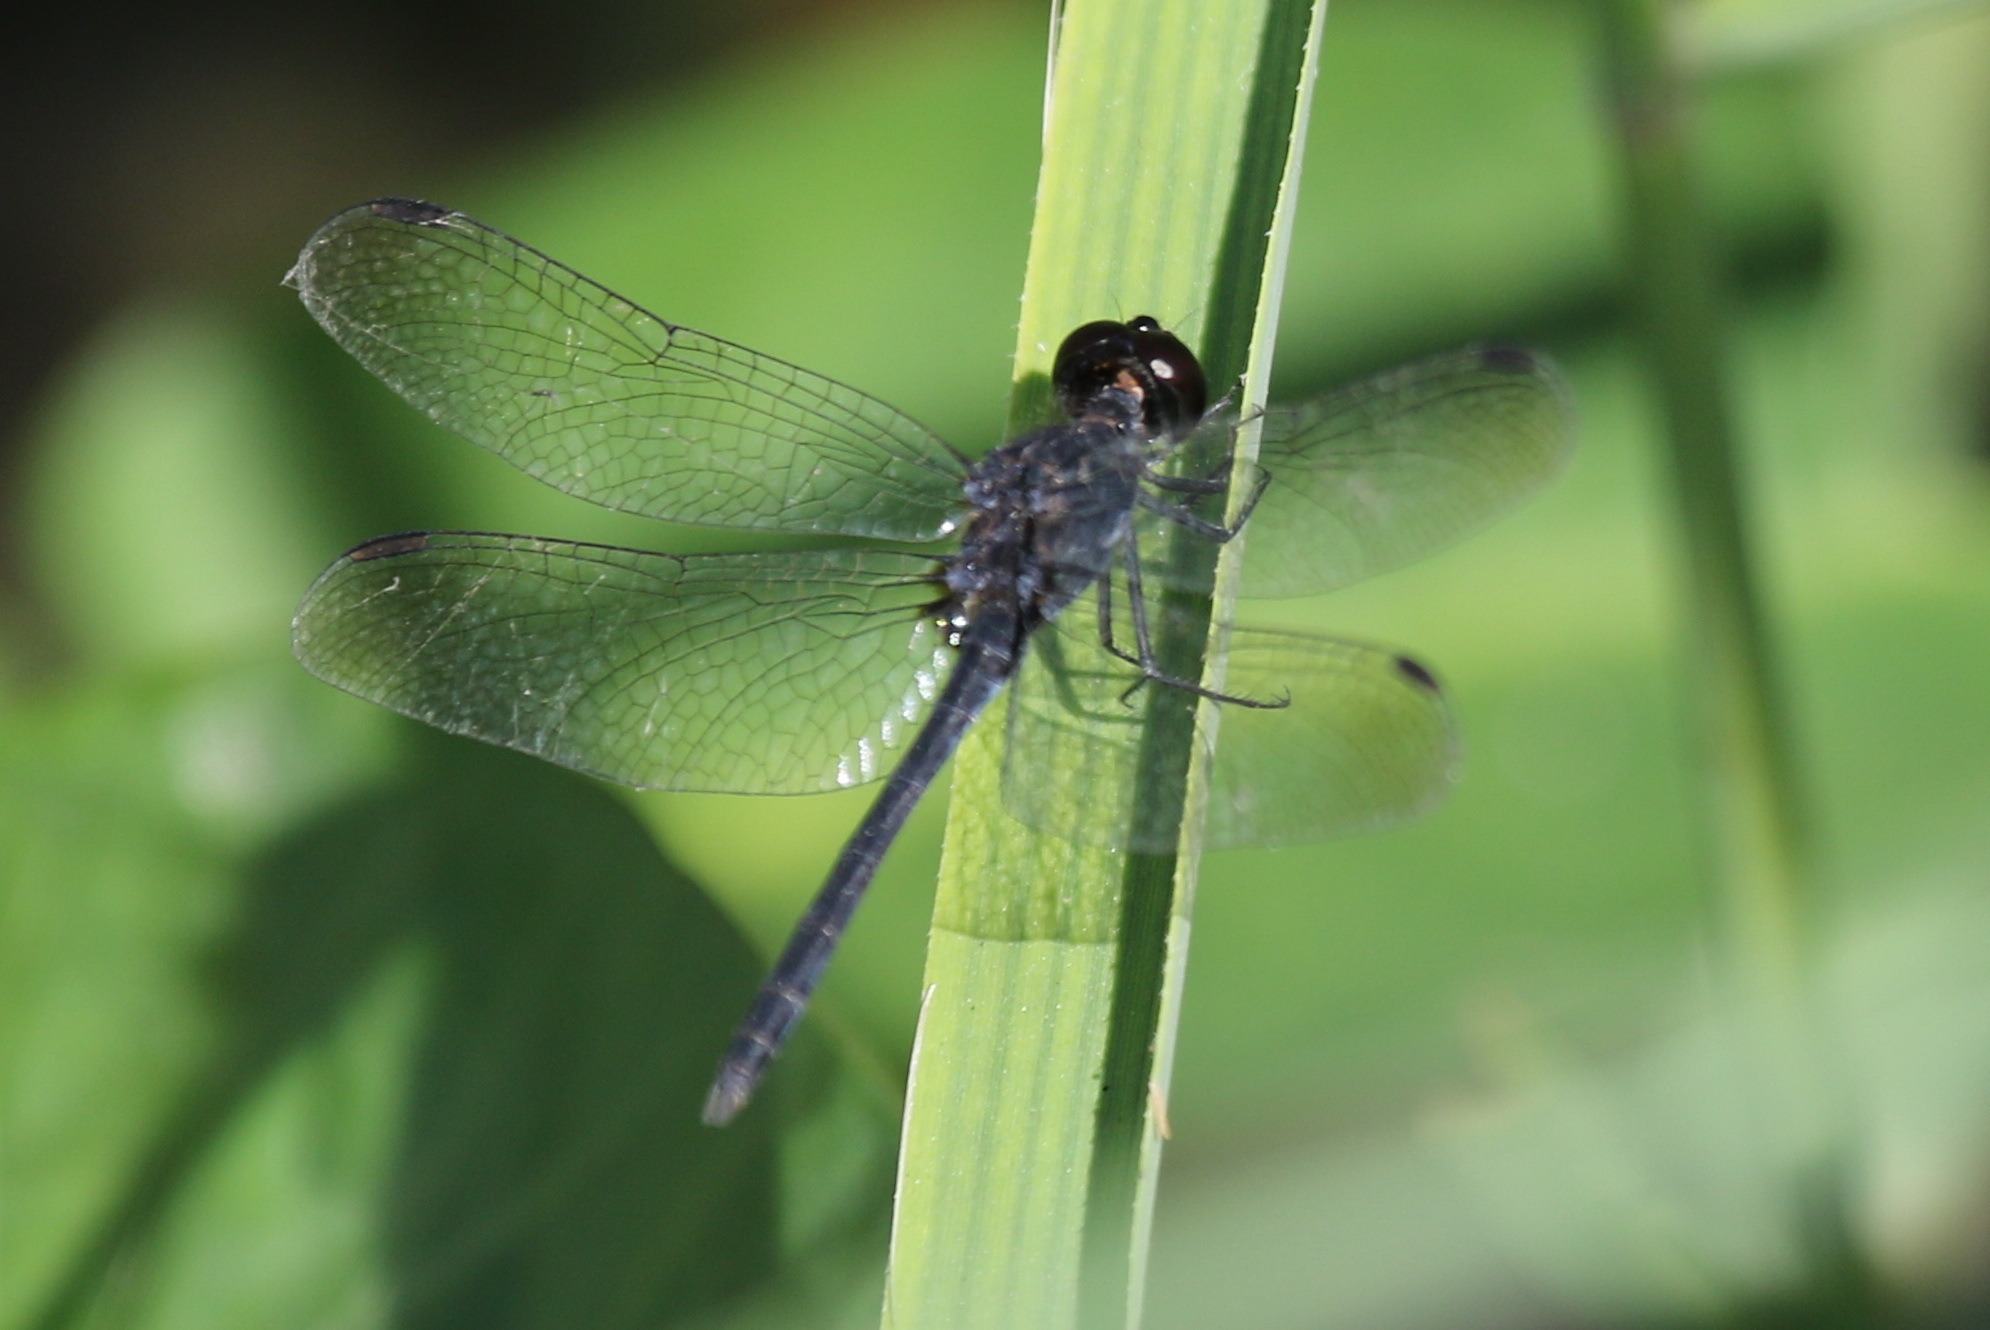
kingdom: Animalia
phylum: Arthropoda
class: Insecta
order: Odonata
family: Libellulidae
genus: Diplacodes
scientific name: Diplacodes lefebvrii
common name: Black percher
